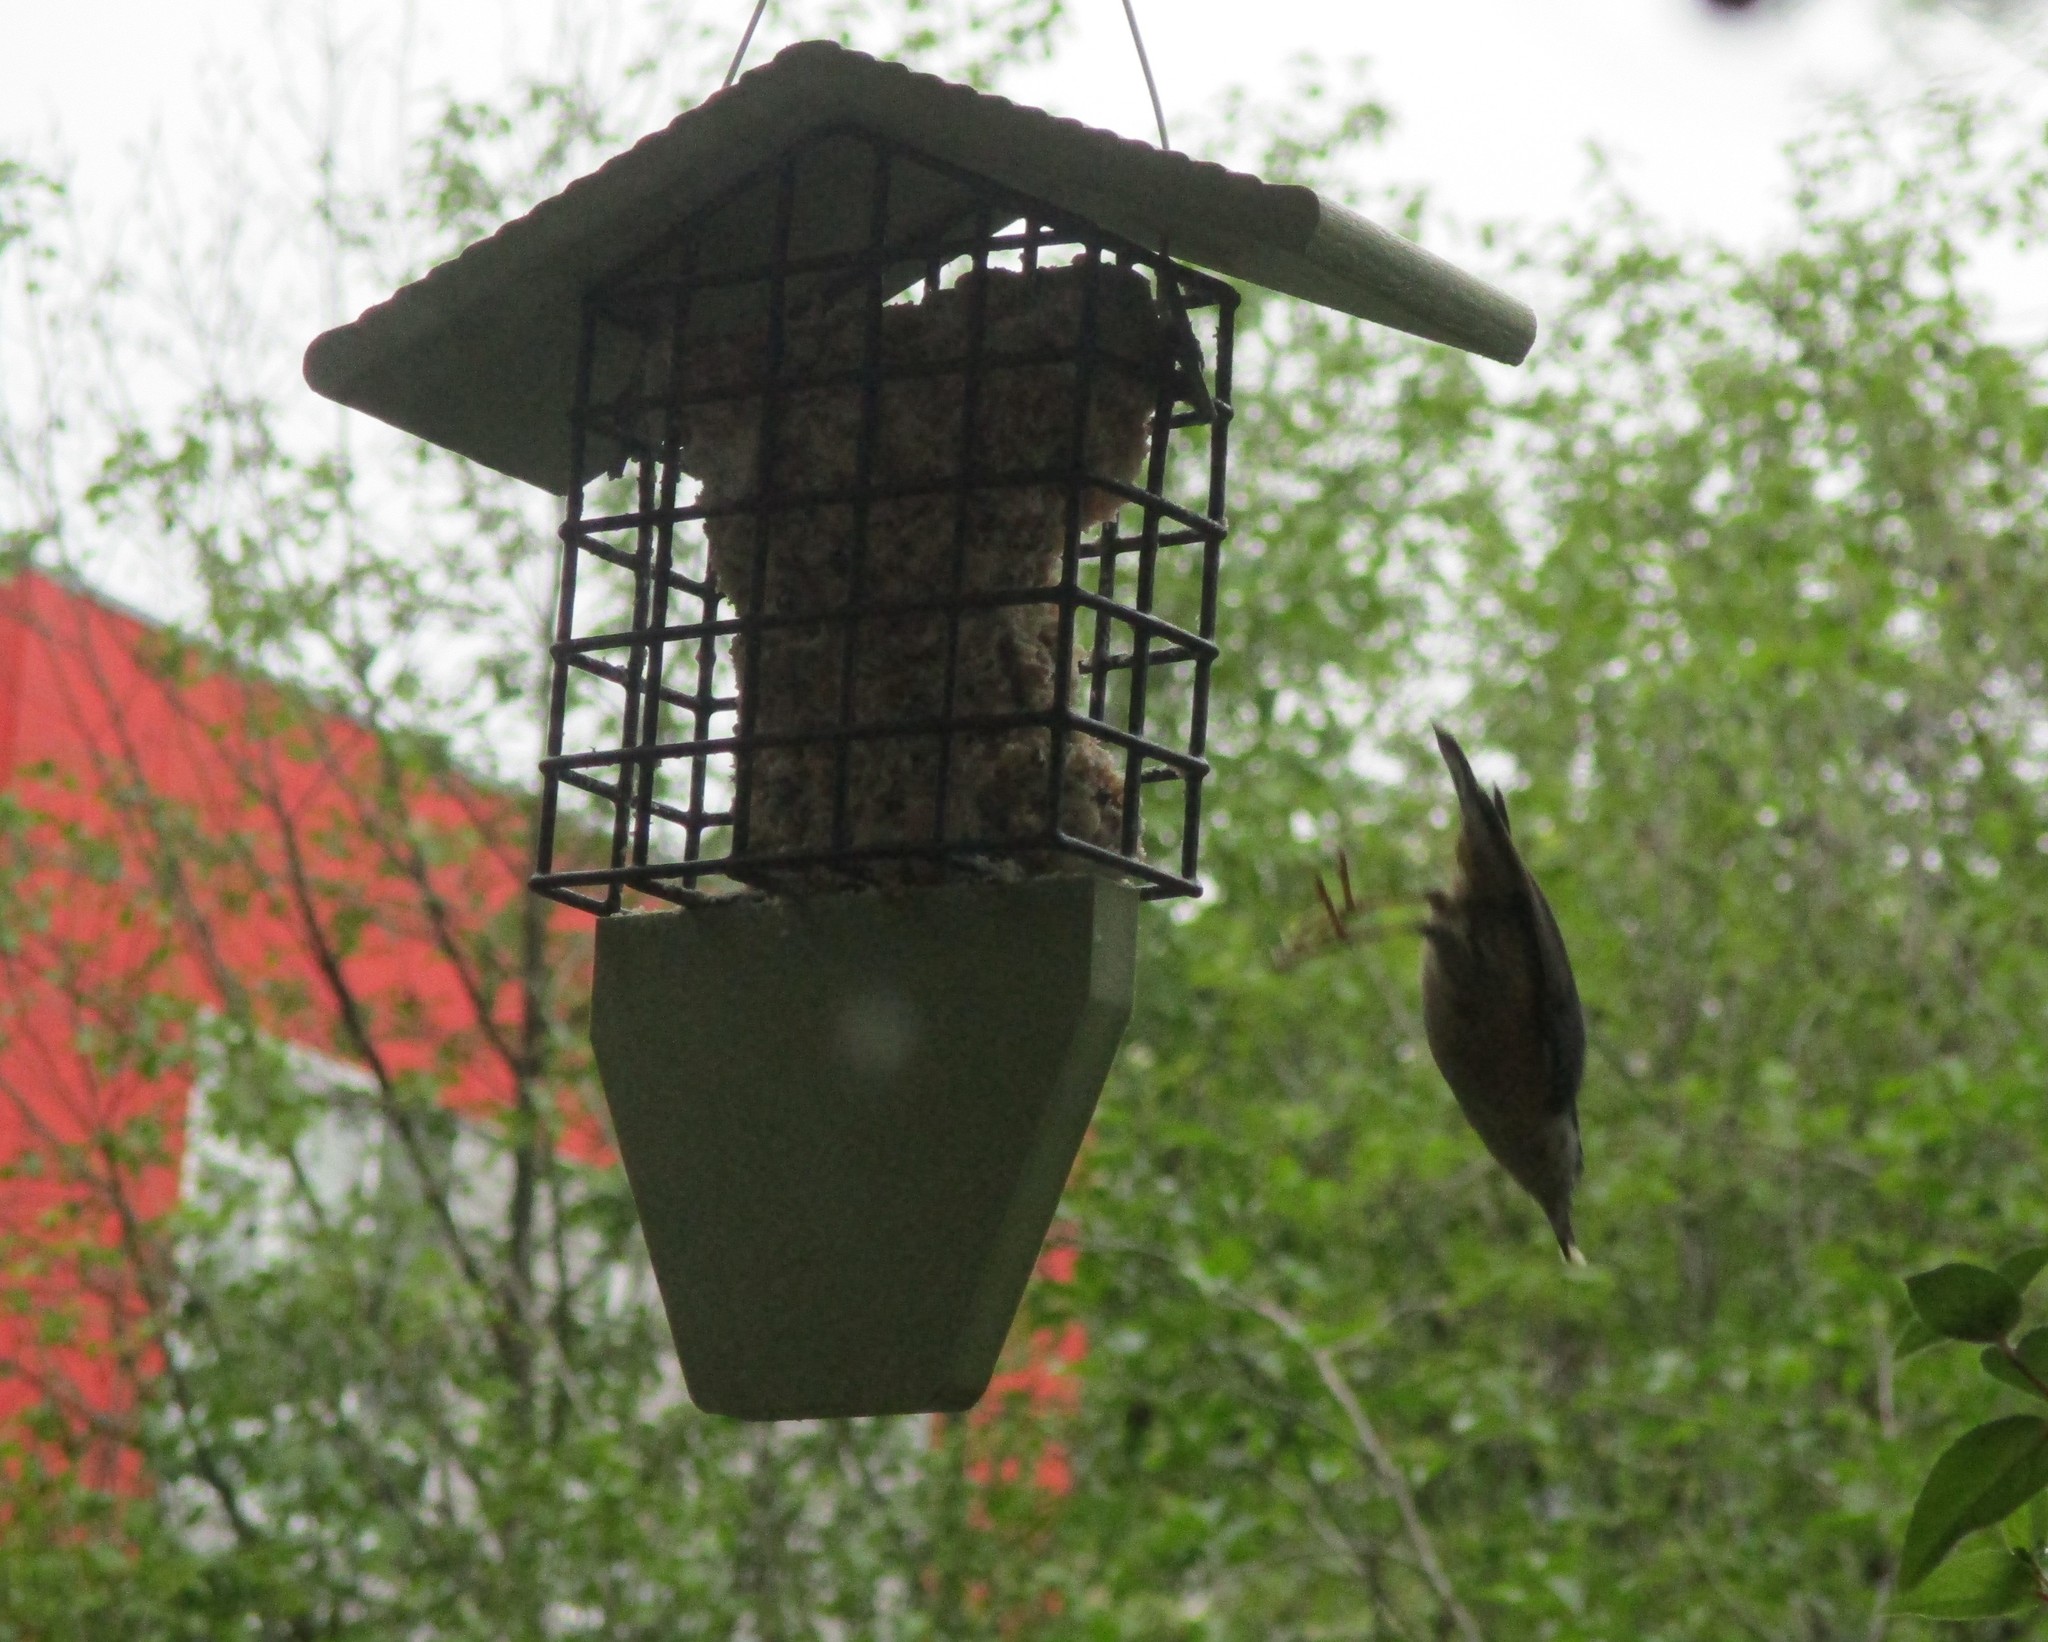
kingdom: Animalia
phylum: Chordata
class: Aves
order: Passeriformes
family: Sittidae
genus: Sitta
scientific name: Sitta canadensis
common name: Red-breasted nuthatch
